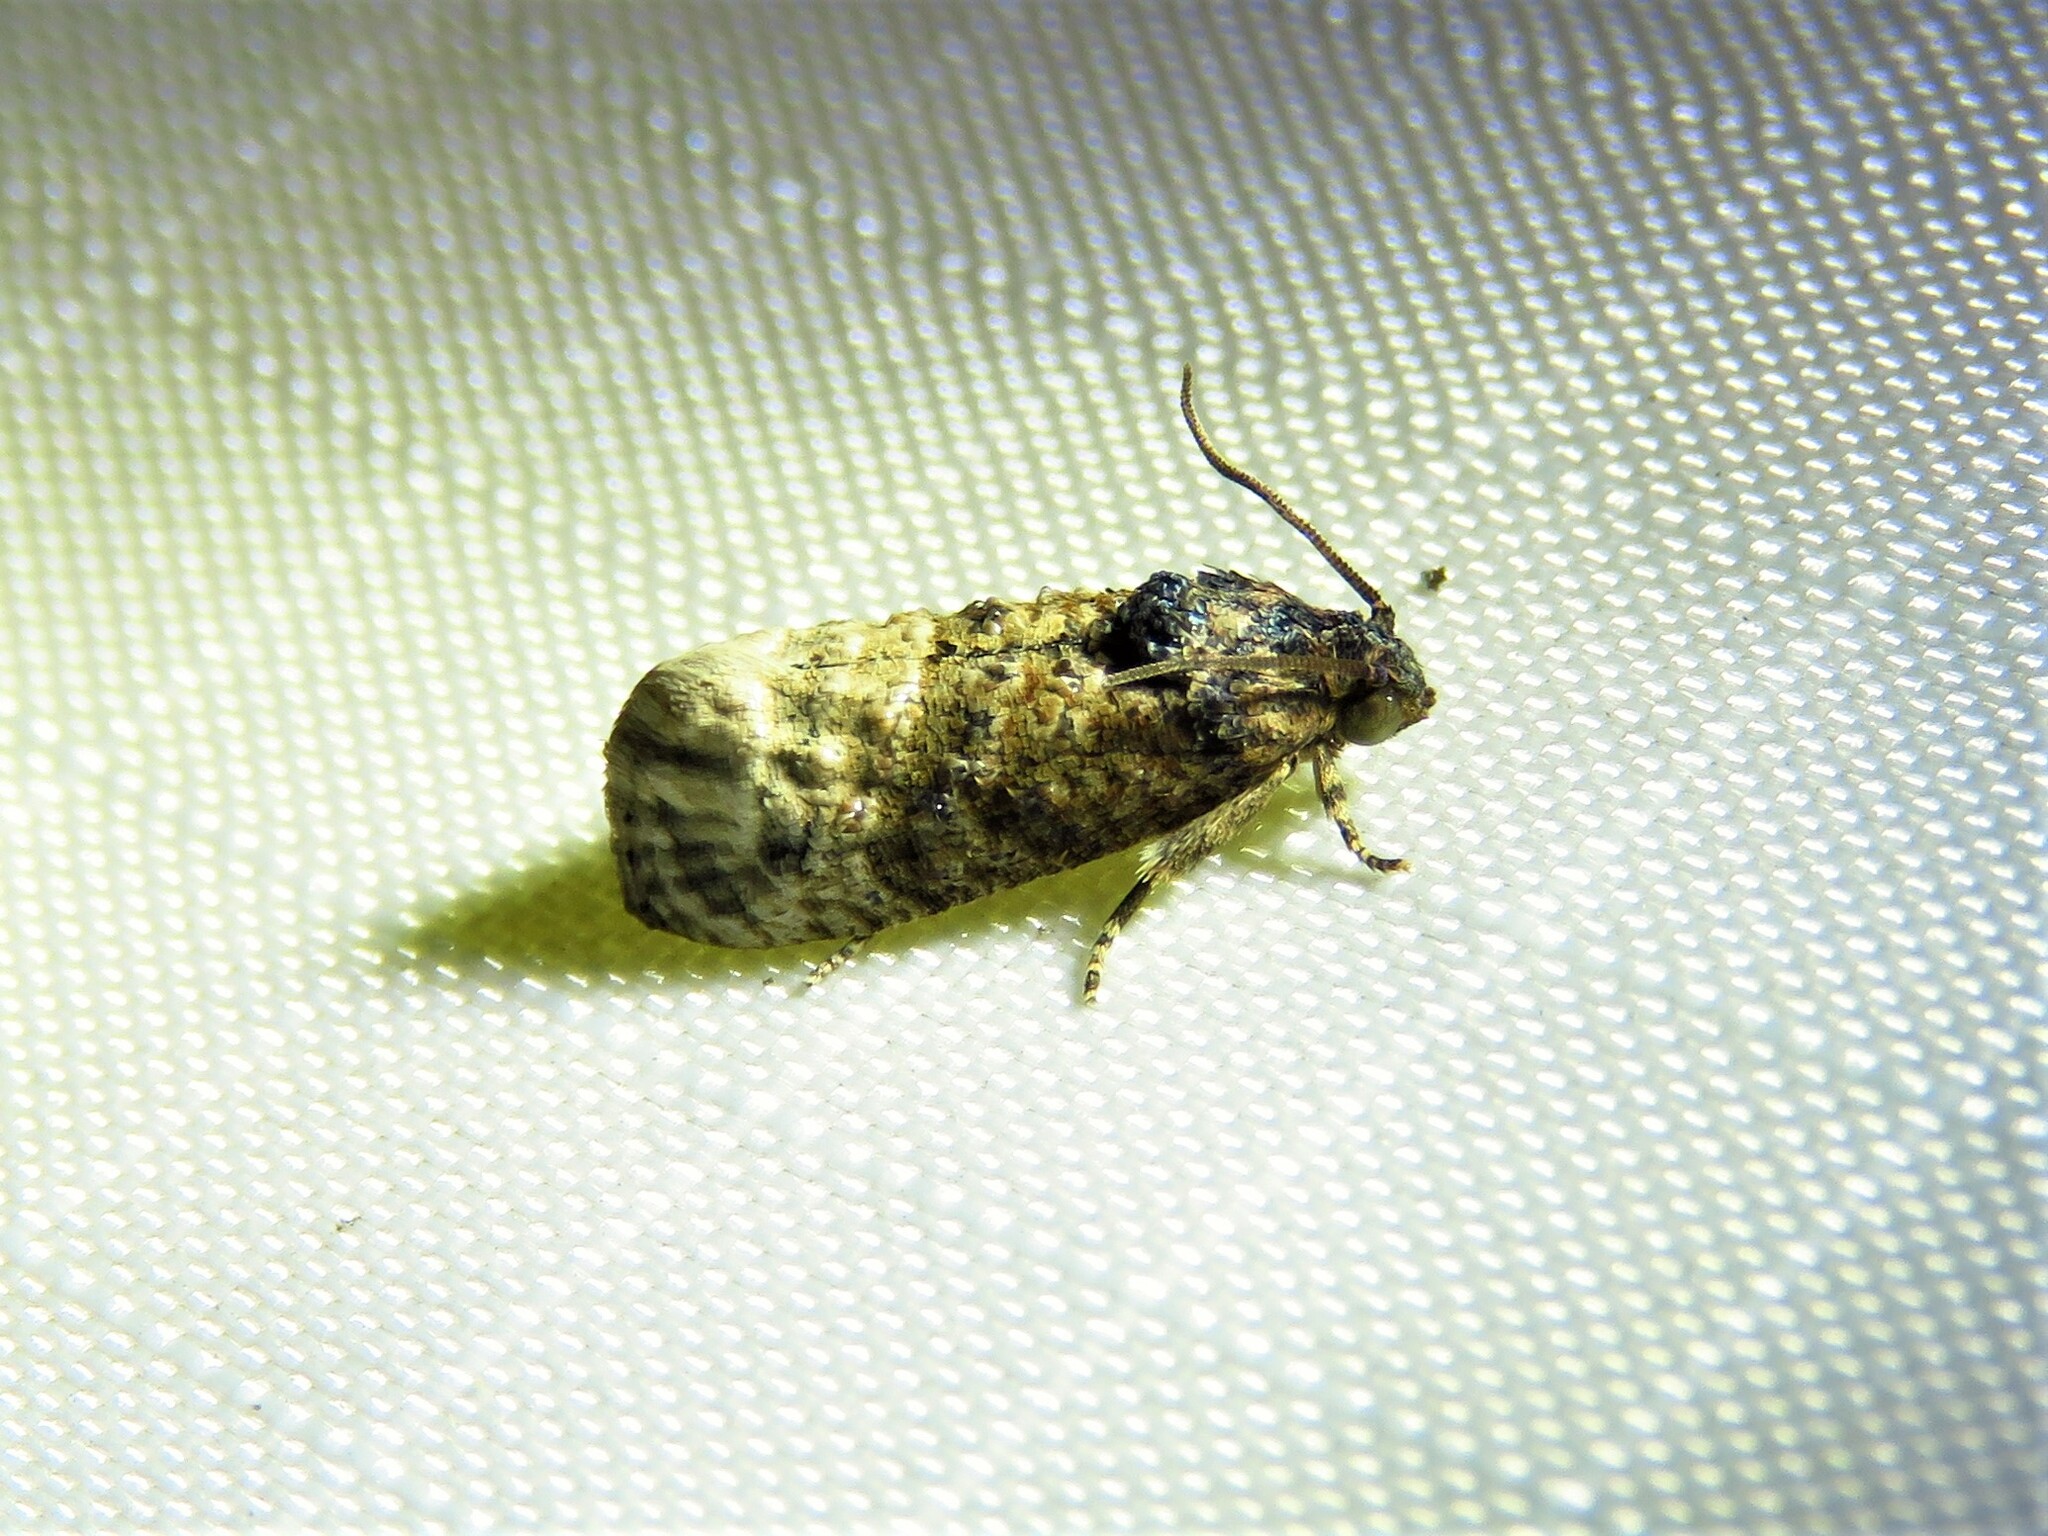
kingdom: Animalia
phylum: Arthropoda
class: Insecta
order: Lepidoptera
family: Tortricidae
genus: Ecdytolopha
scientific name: Ecdytolopha mana
